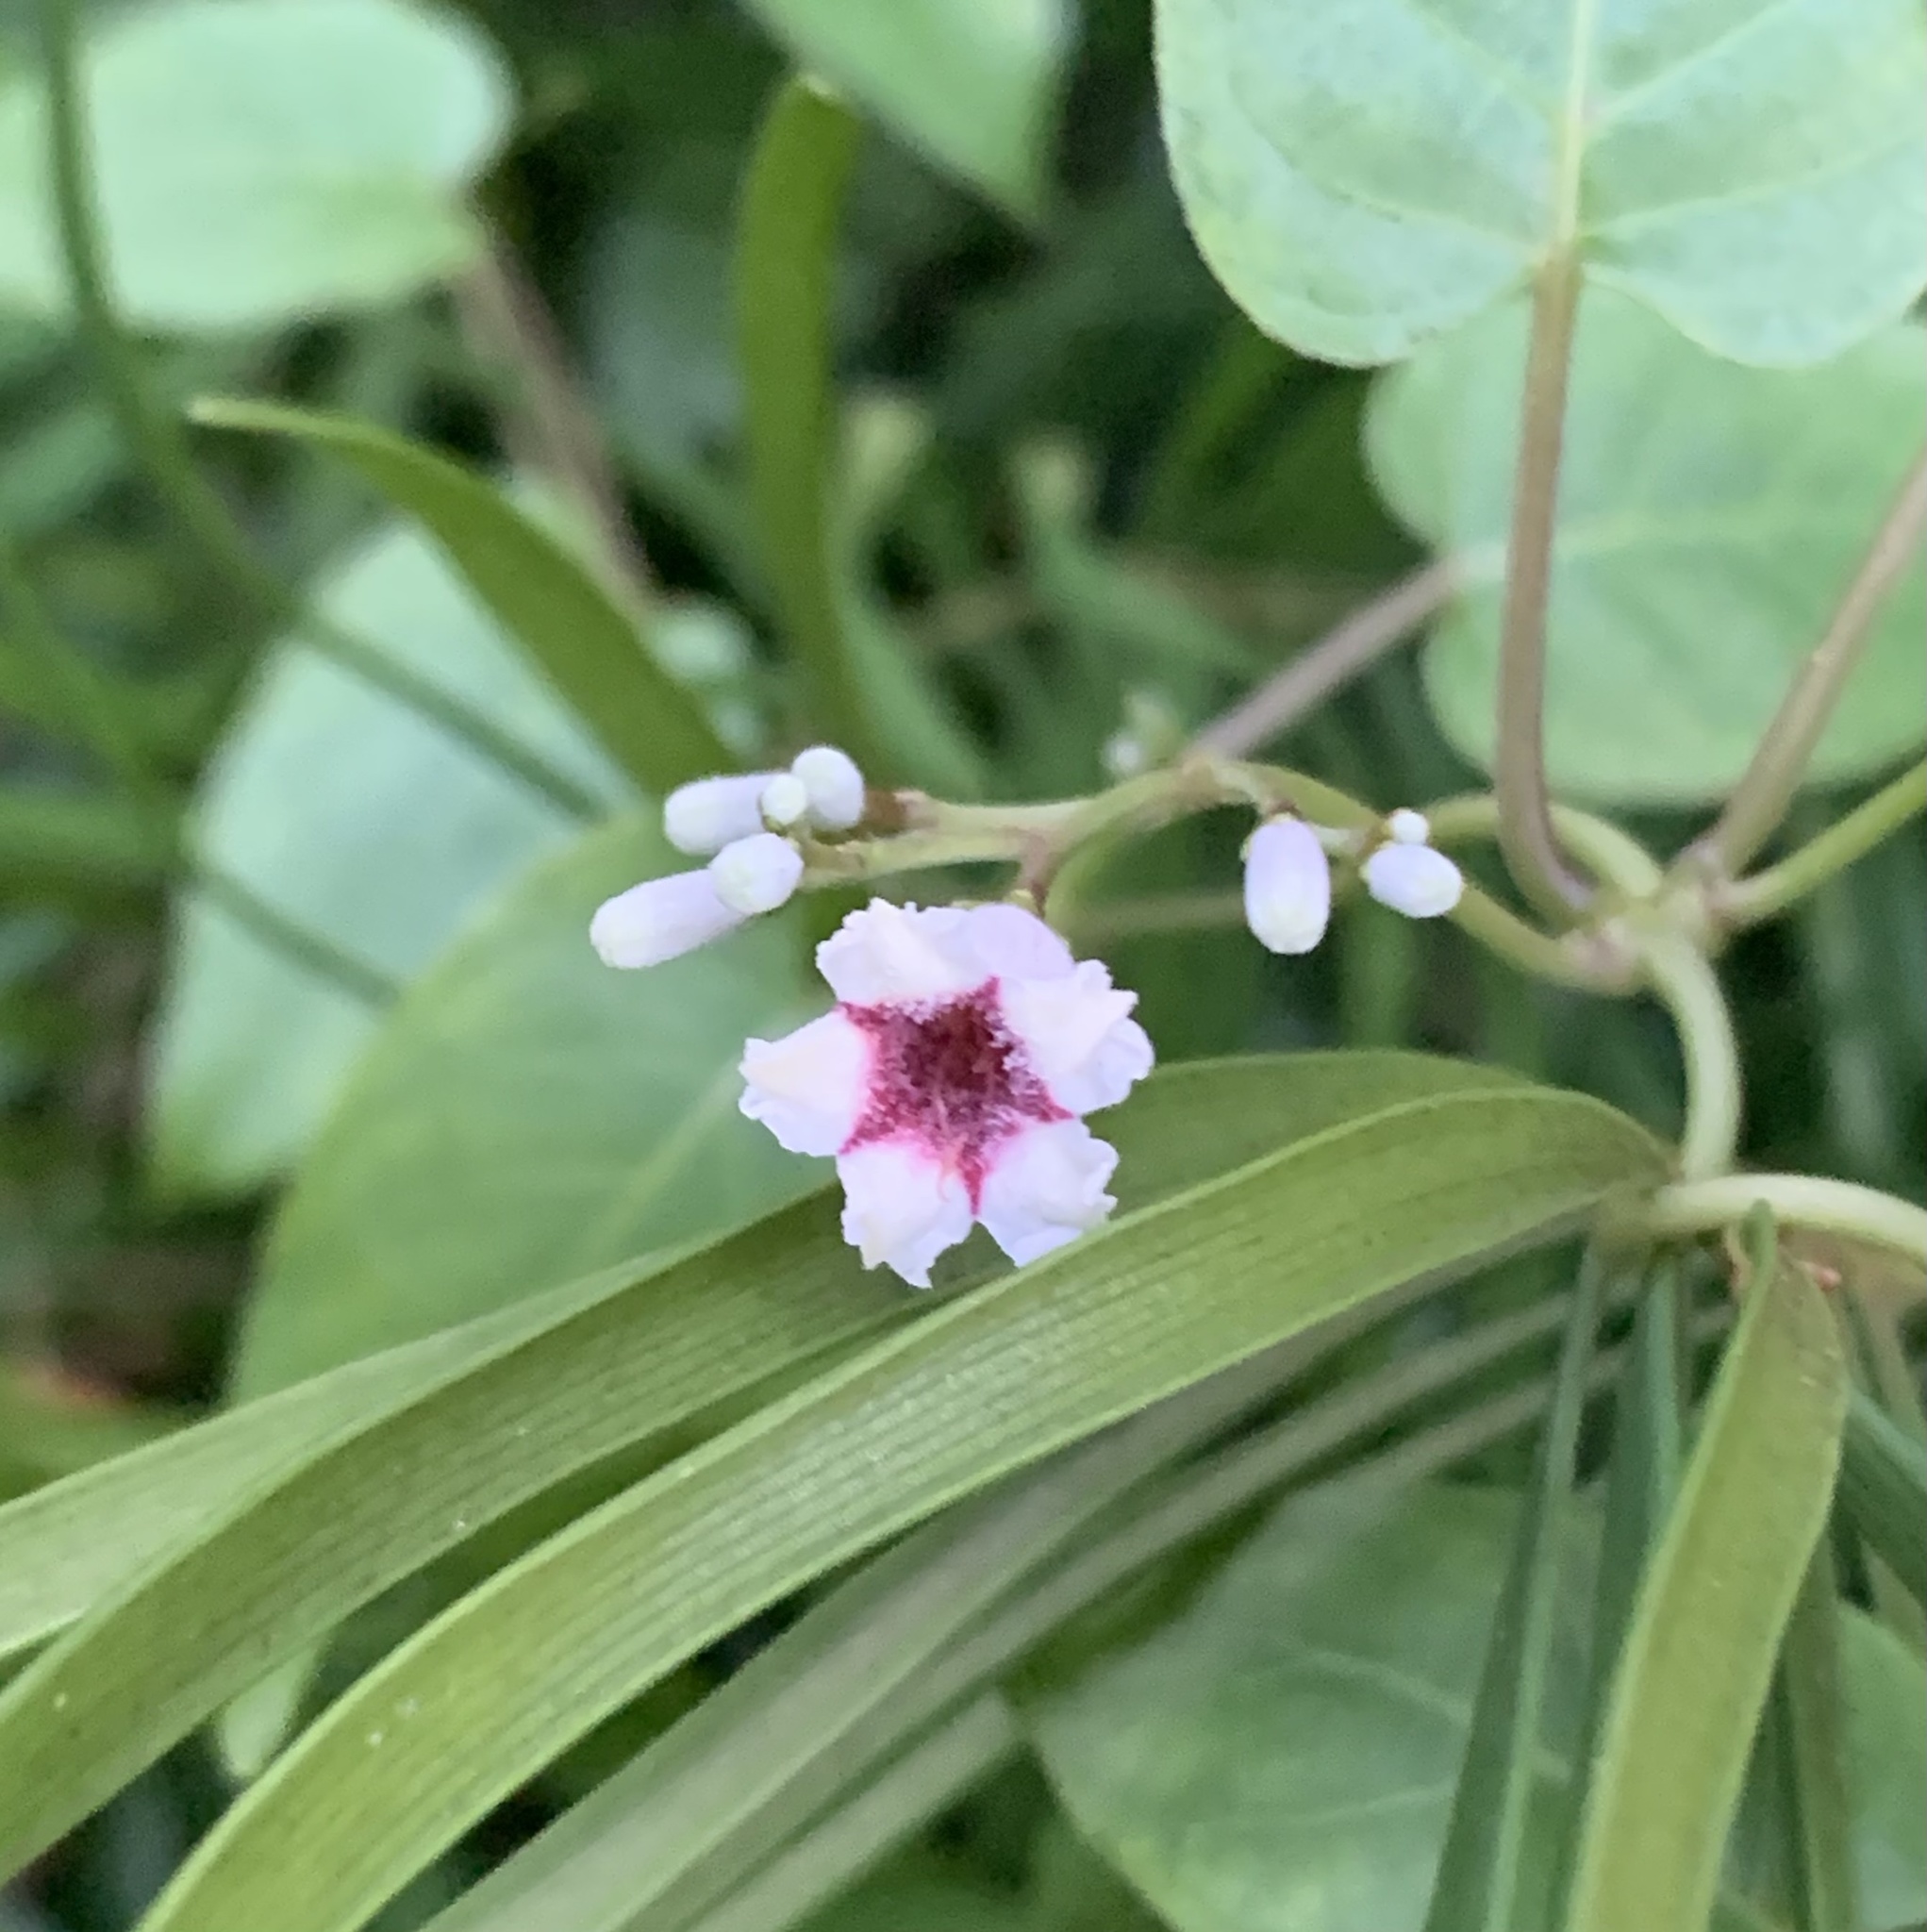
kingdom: Plantae
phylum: Tracheophyta
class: Magnoliopsida
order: Gentianales
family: Rubiaceae
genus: Paederia
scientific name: Paederia foetida
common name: Stinkvine
